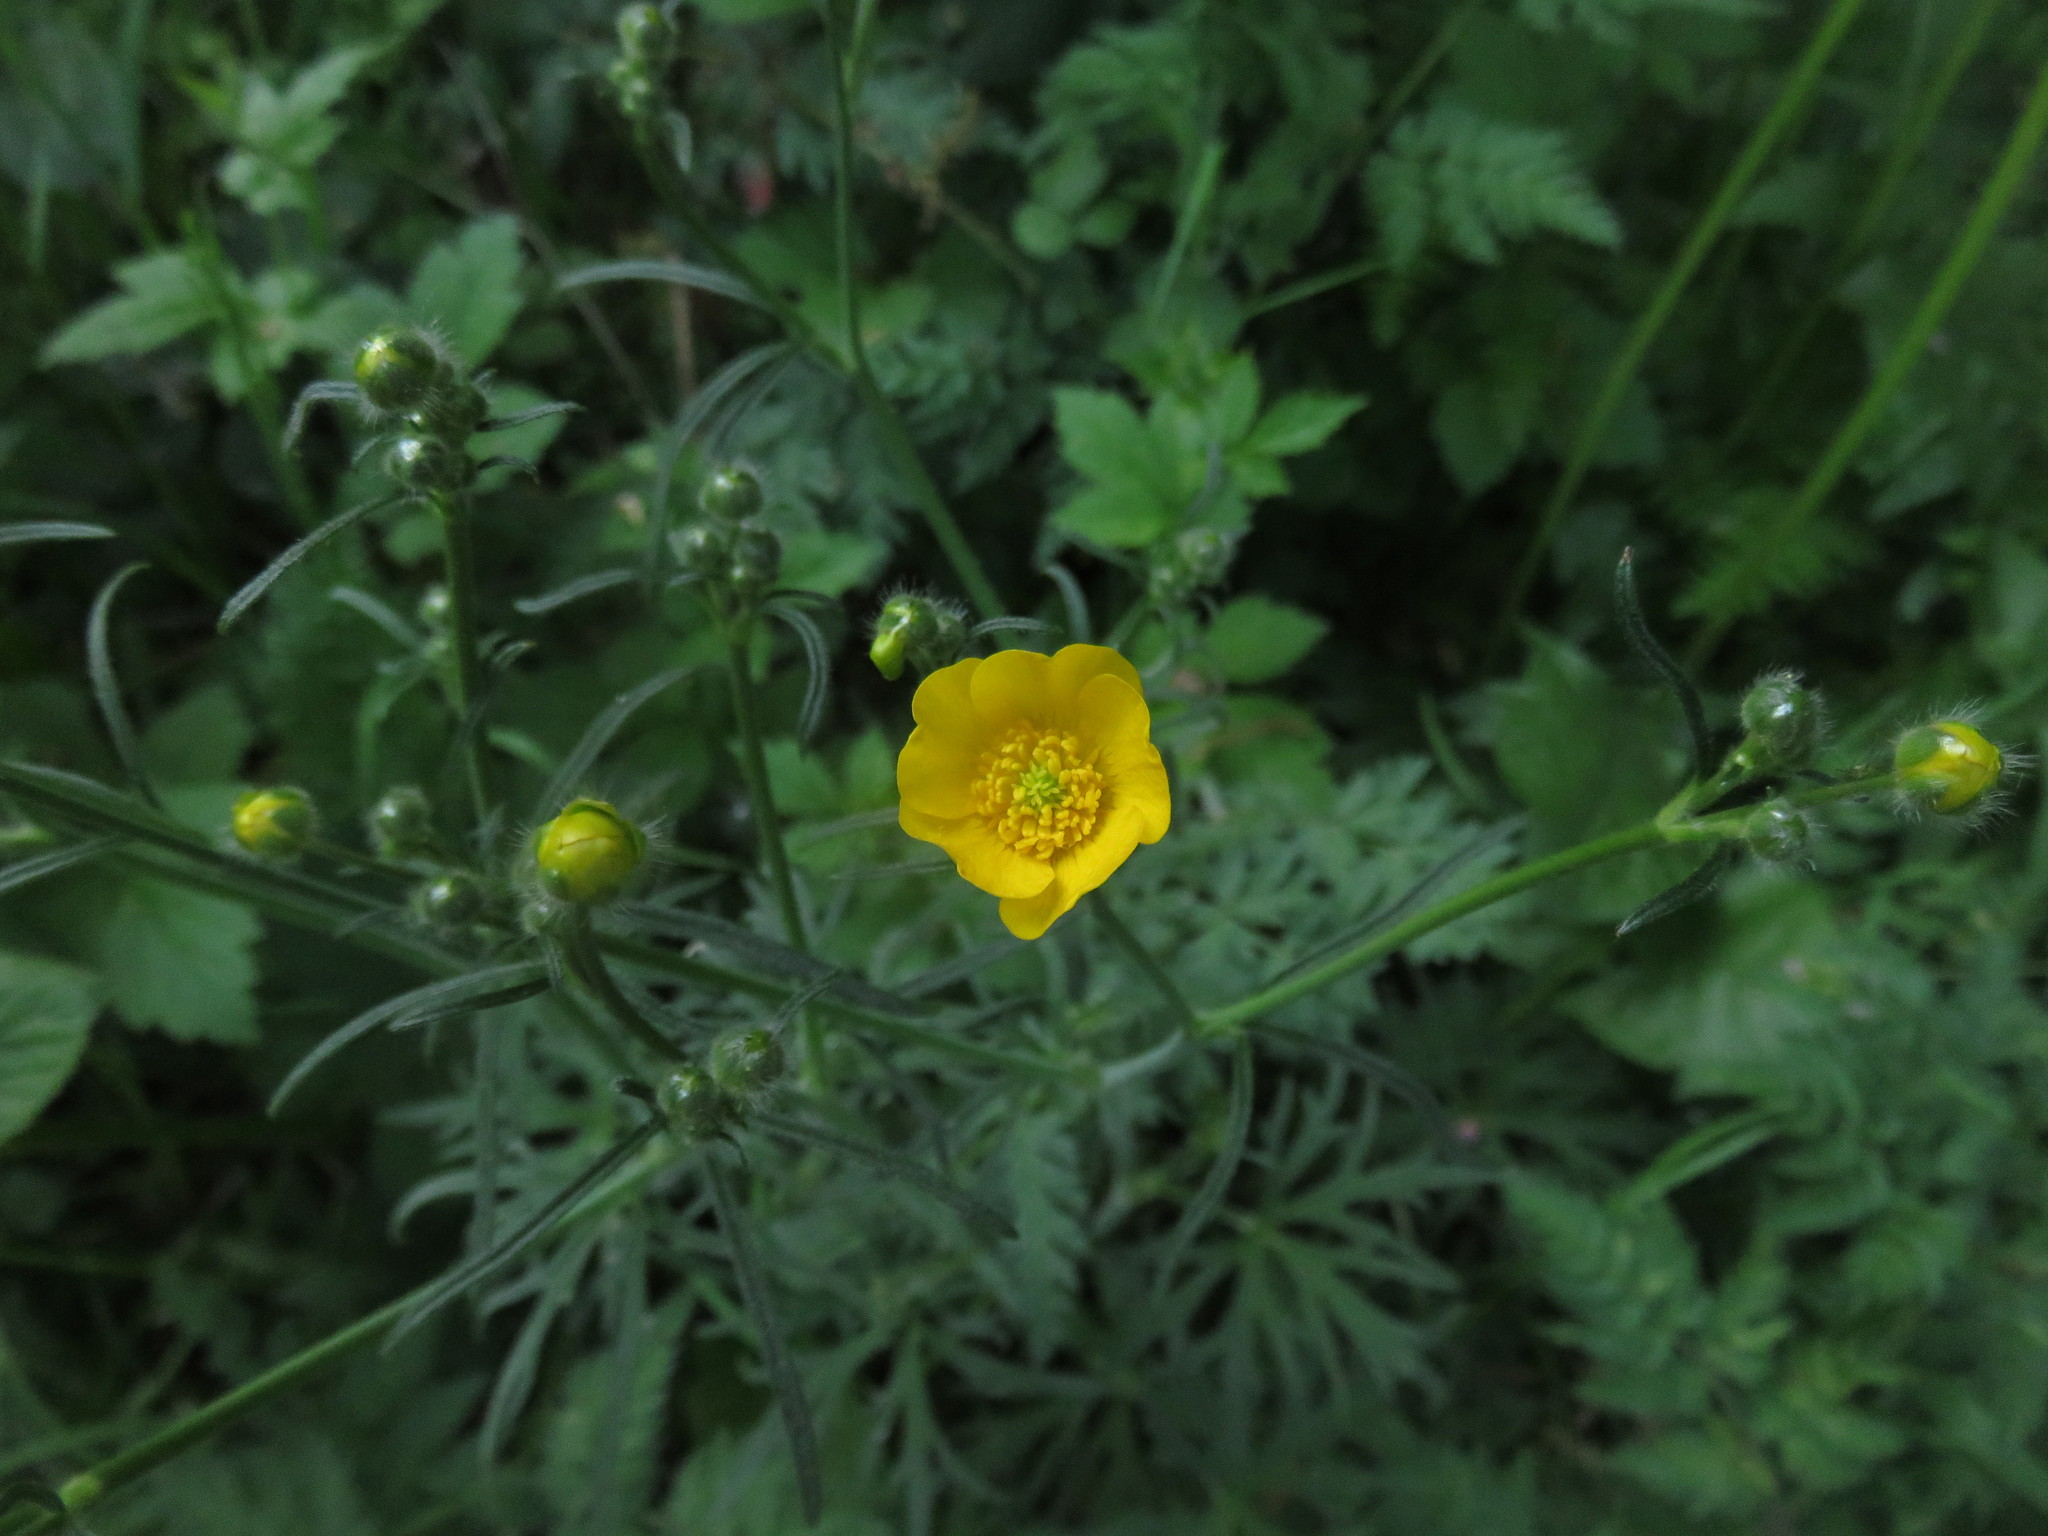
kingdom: Plantae
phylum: Tracheophyta
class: Magnoliopsida
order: Ranunculales
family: Ranunculaceae
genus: Ranunculus
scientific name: Ranunculus acris
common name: Meadow buttercup
